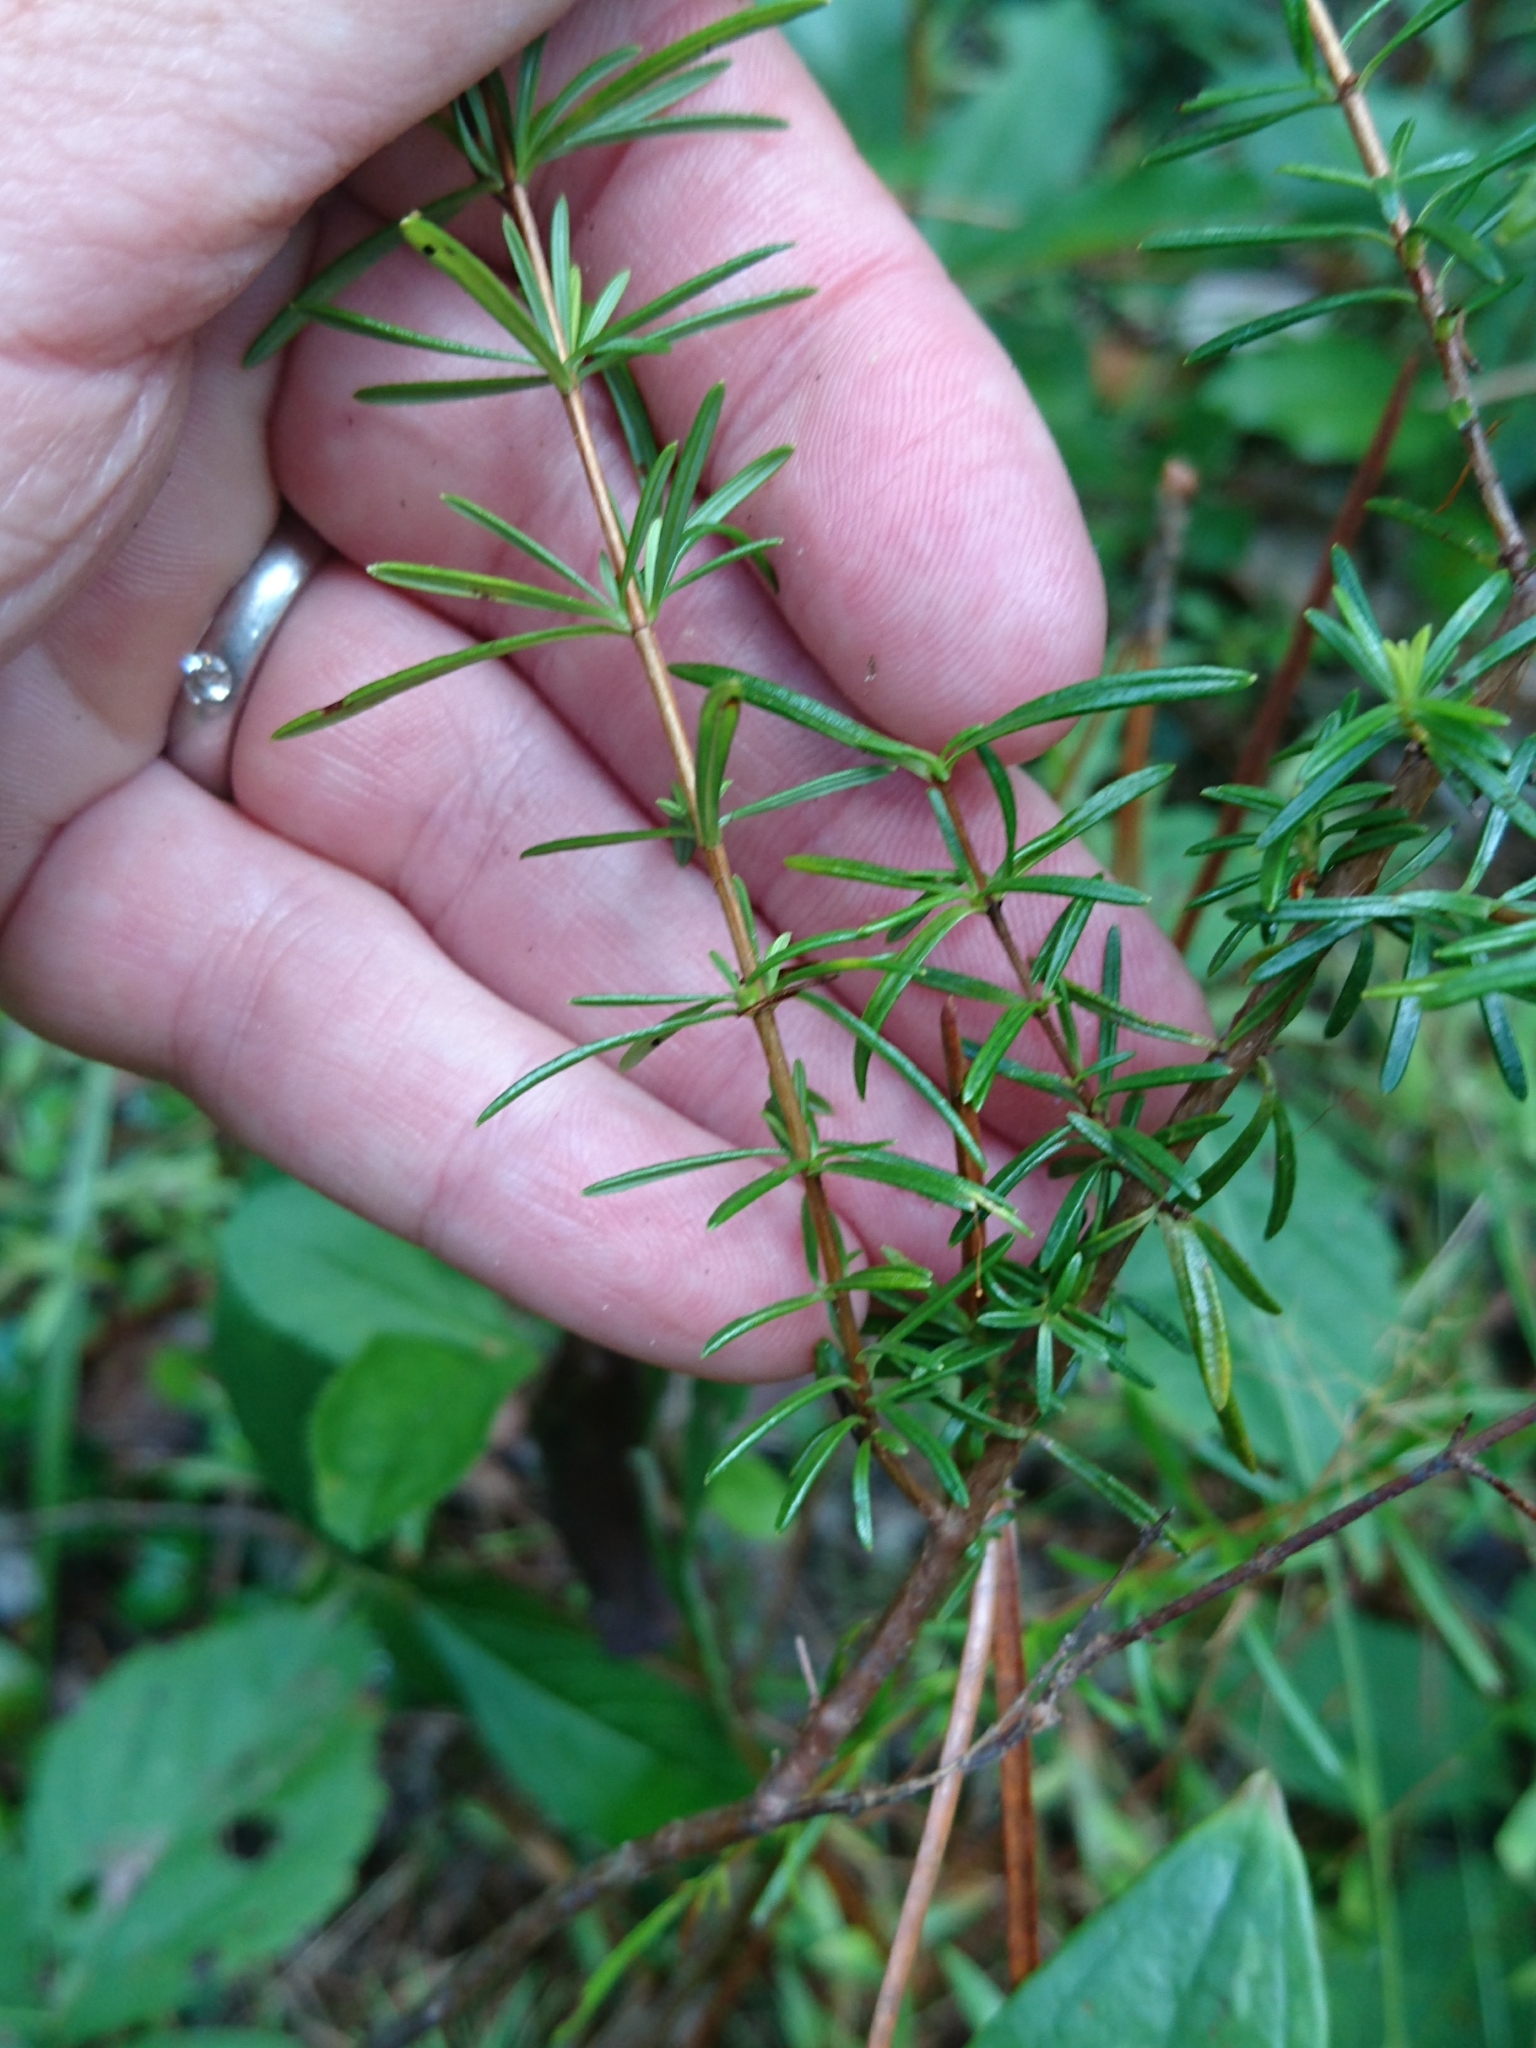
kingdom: Plantae
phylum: Tracheophyta
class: Magnoliopsida
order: Malpighiales
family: Hypericaceae
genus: Hypericum
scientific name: Hypericum fasciculatum
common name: Peelbark st. john's wort
